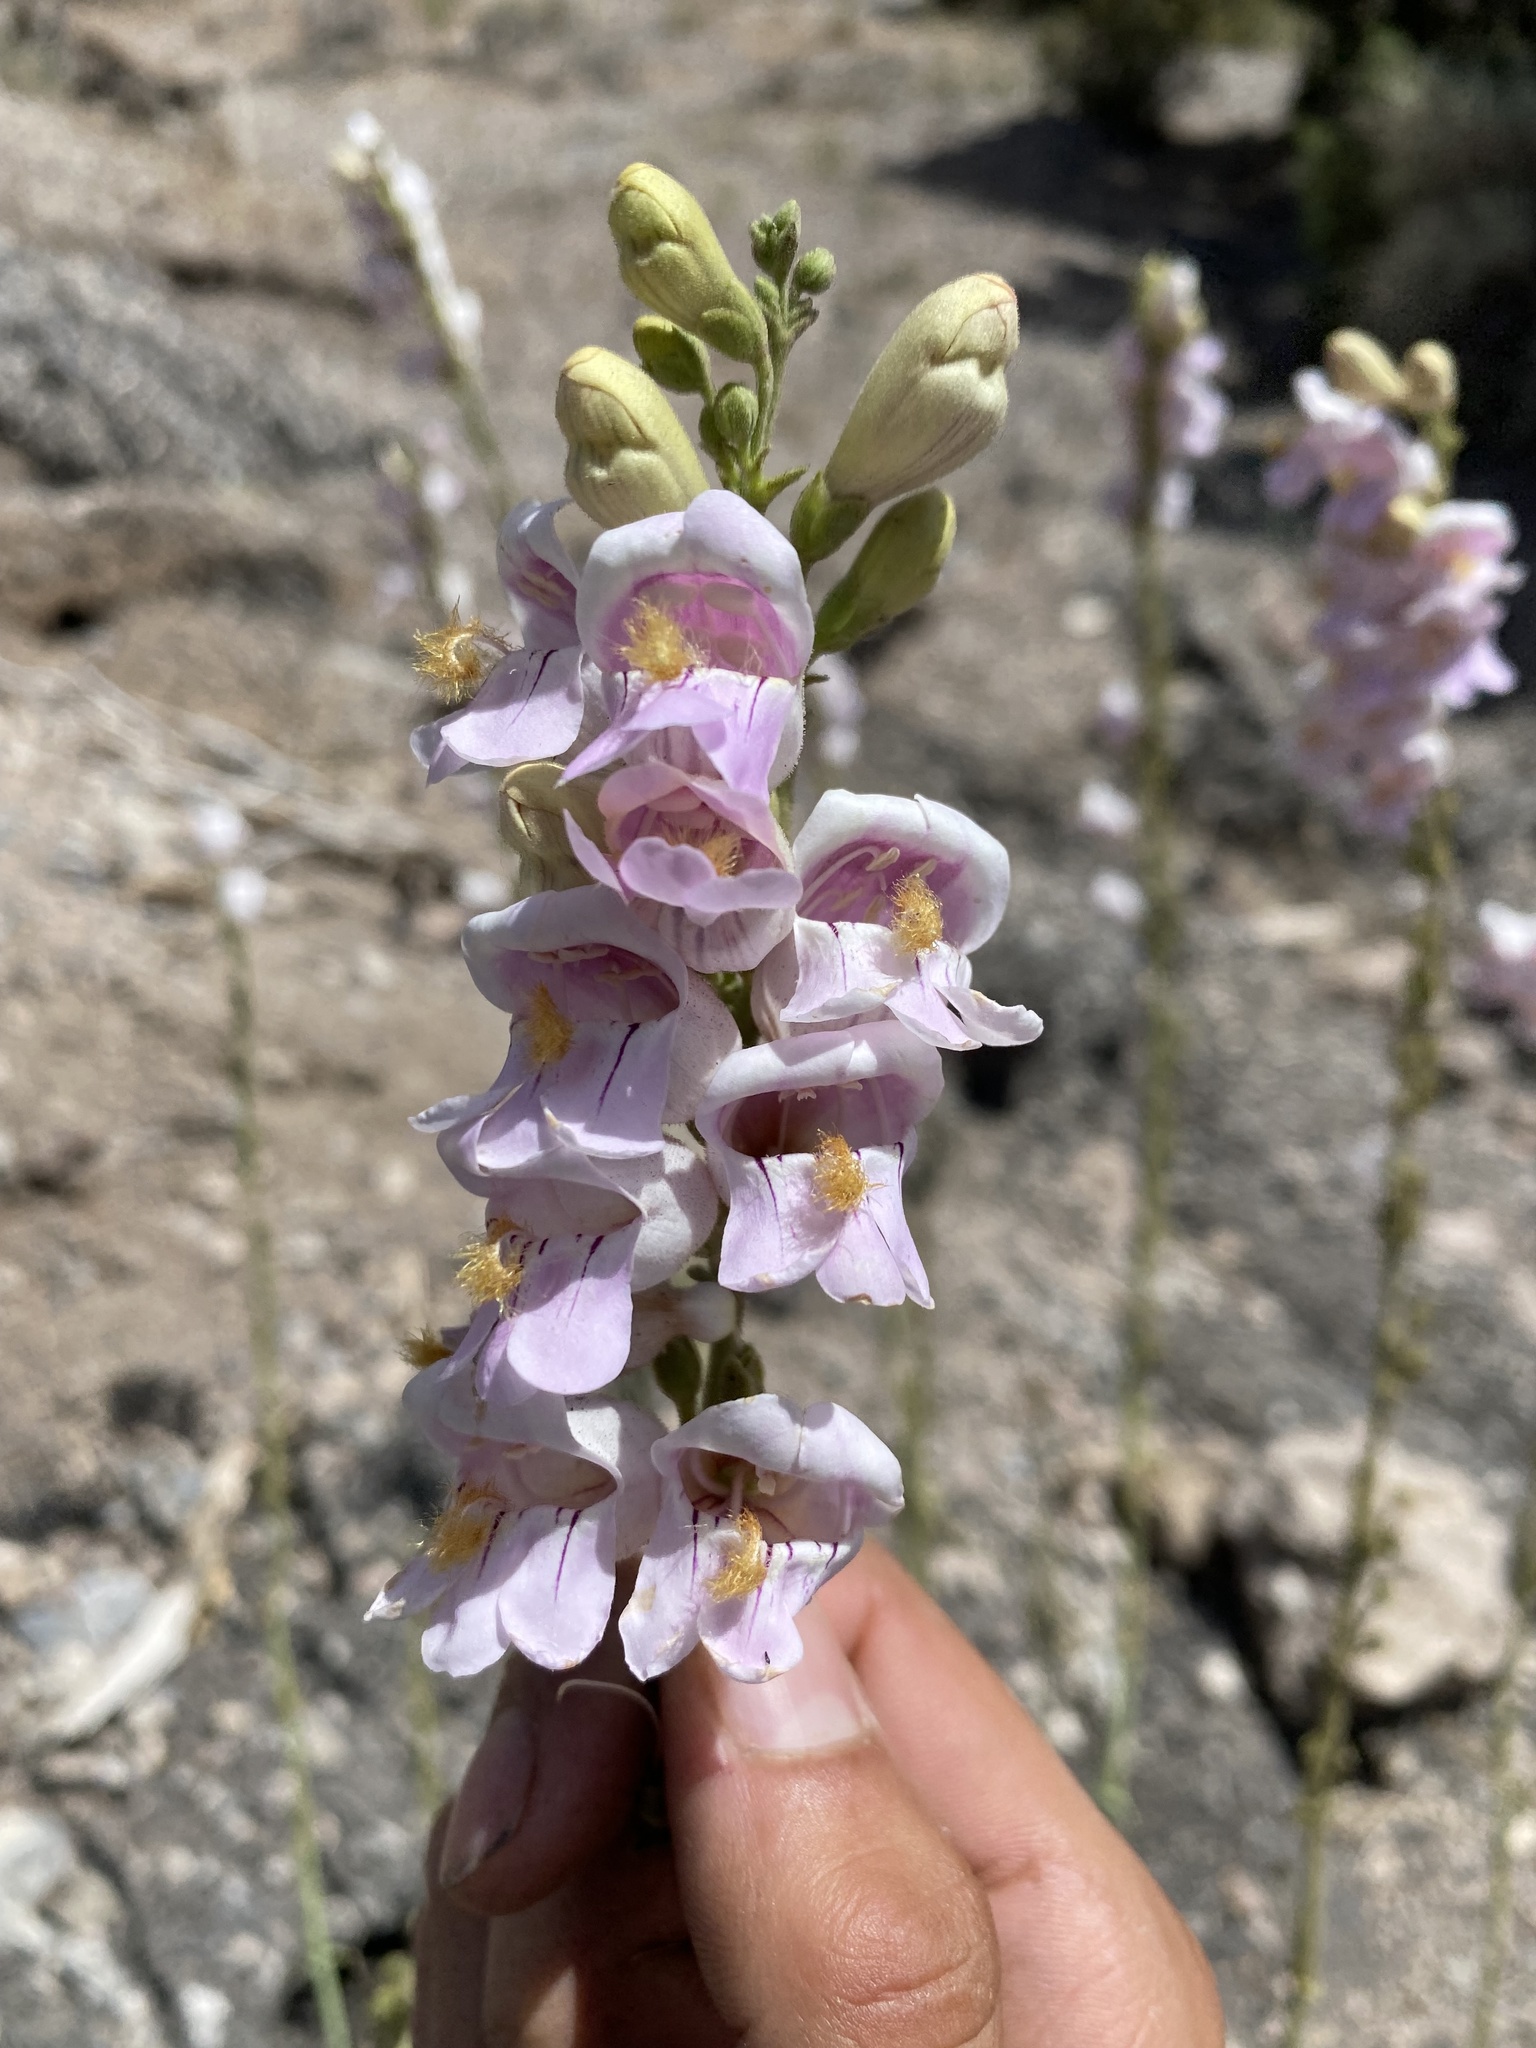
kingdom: Plantae
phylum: Tracheophyta
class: Magnoliopsida
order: Lamiales
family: Plantaginaceae
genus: Penstemon
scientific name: Penstemon palmeri
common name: Palmer penstemon
